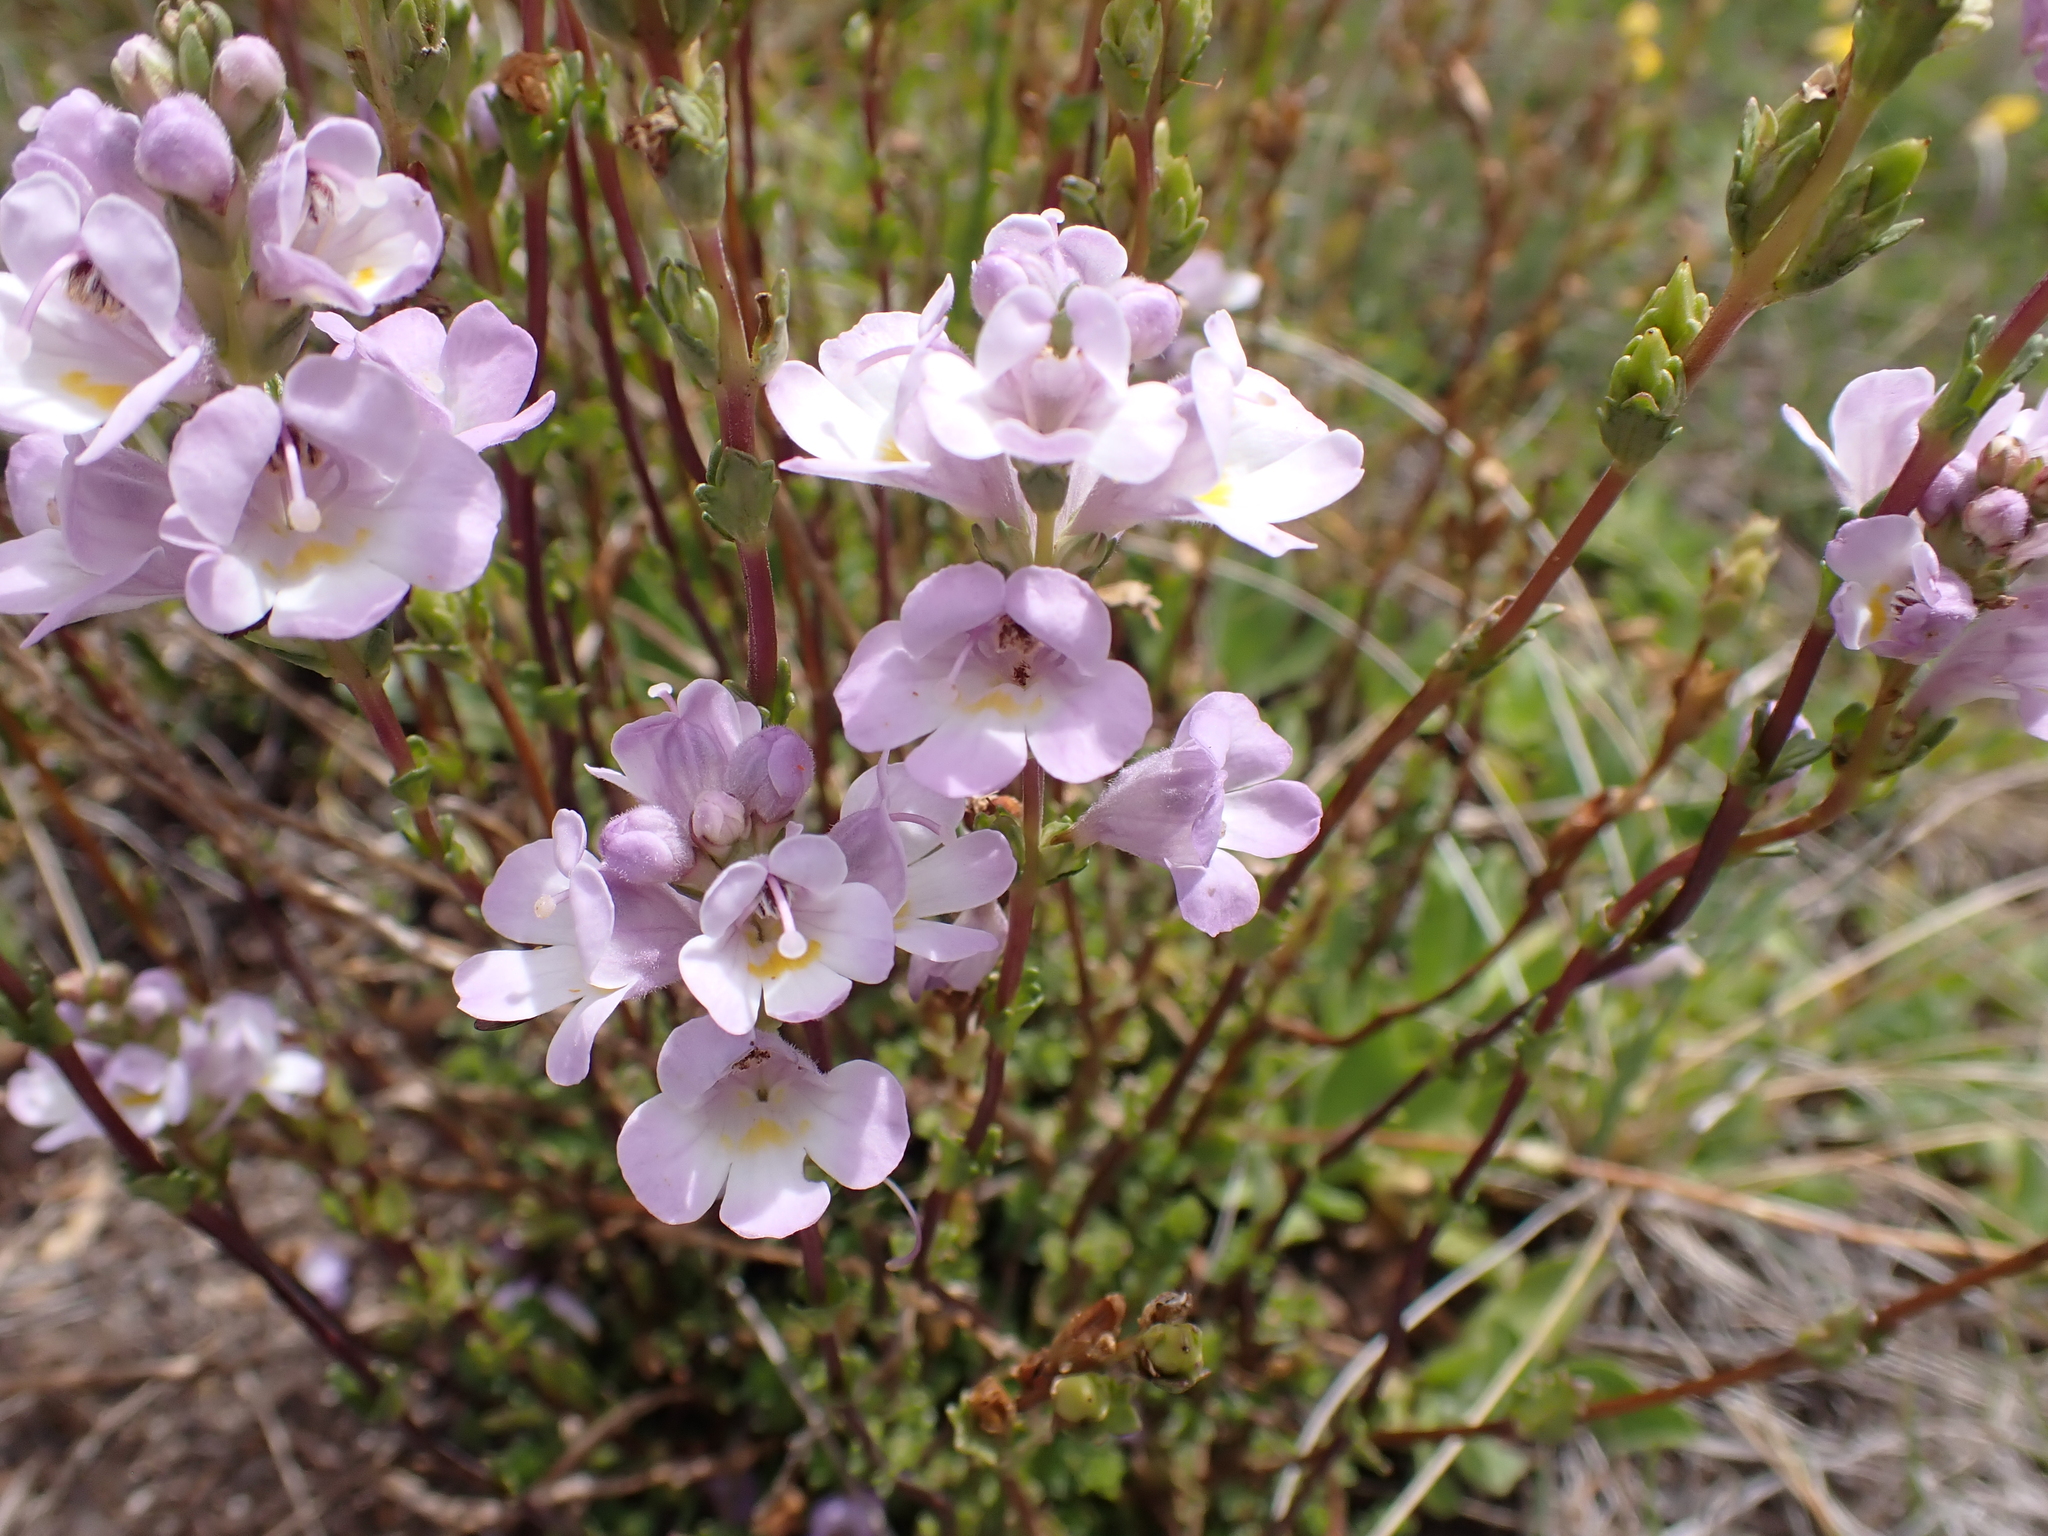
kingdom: Plantae
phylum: Tracheophyta
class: Magnoliopsida
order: Lamiales
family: Orobanchaceae
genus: Euphrasia
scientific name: Euphrasia collina
